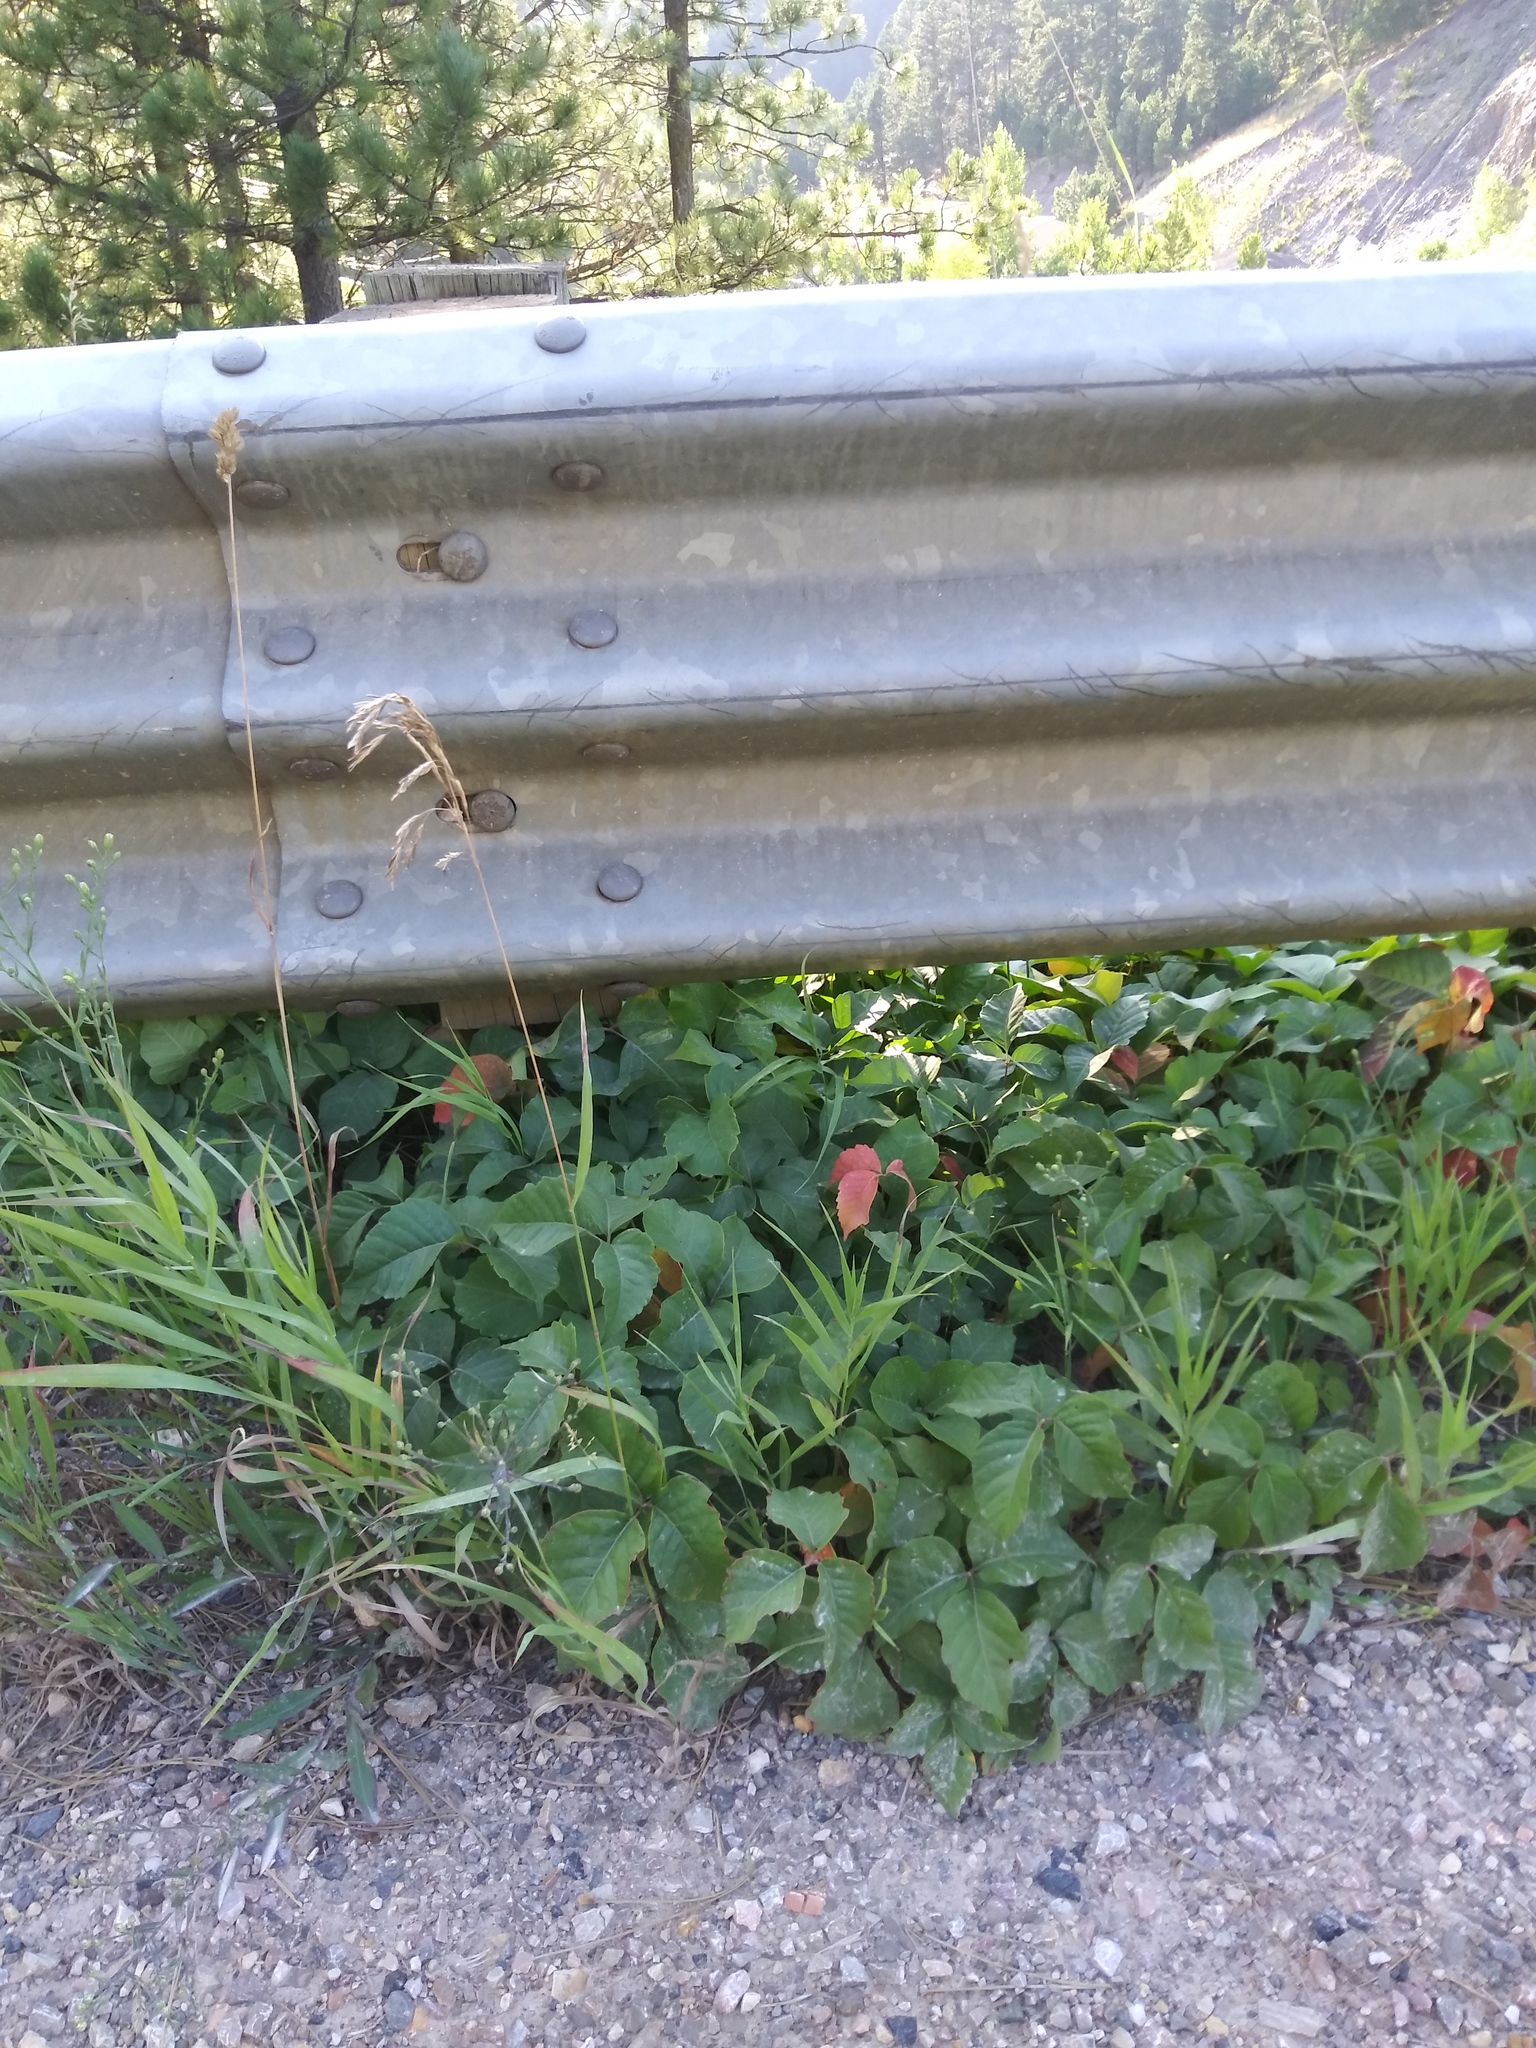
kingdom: Plantae
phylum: Tracheophyta
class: Magnoliopsida
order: Sapindales
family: Anacardiaceae
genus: Toxicodendron
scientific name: Toxicodendron rydbergii
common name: Rydberg's poison-ivy
